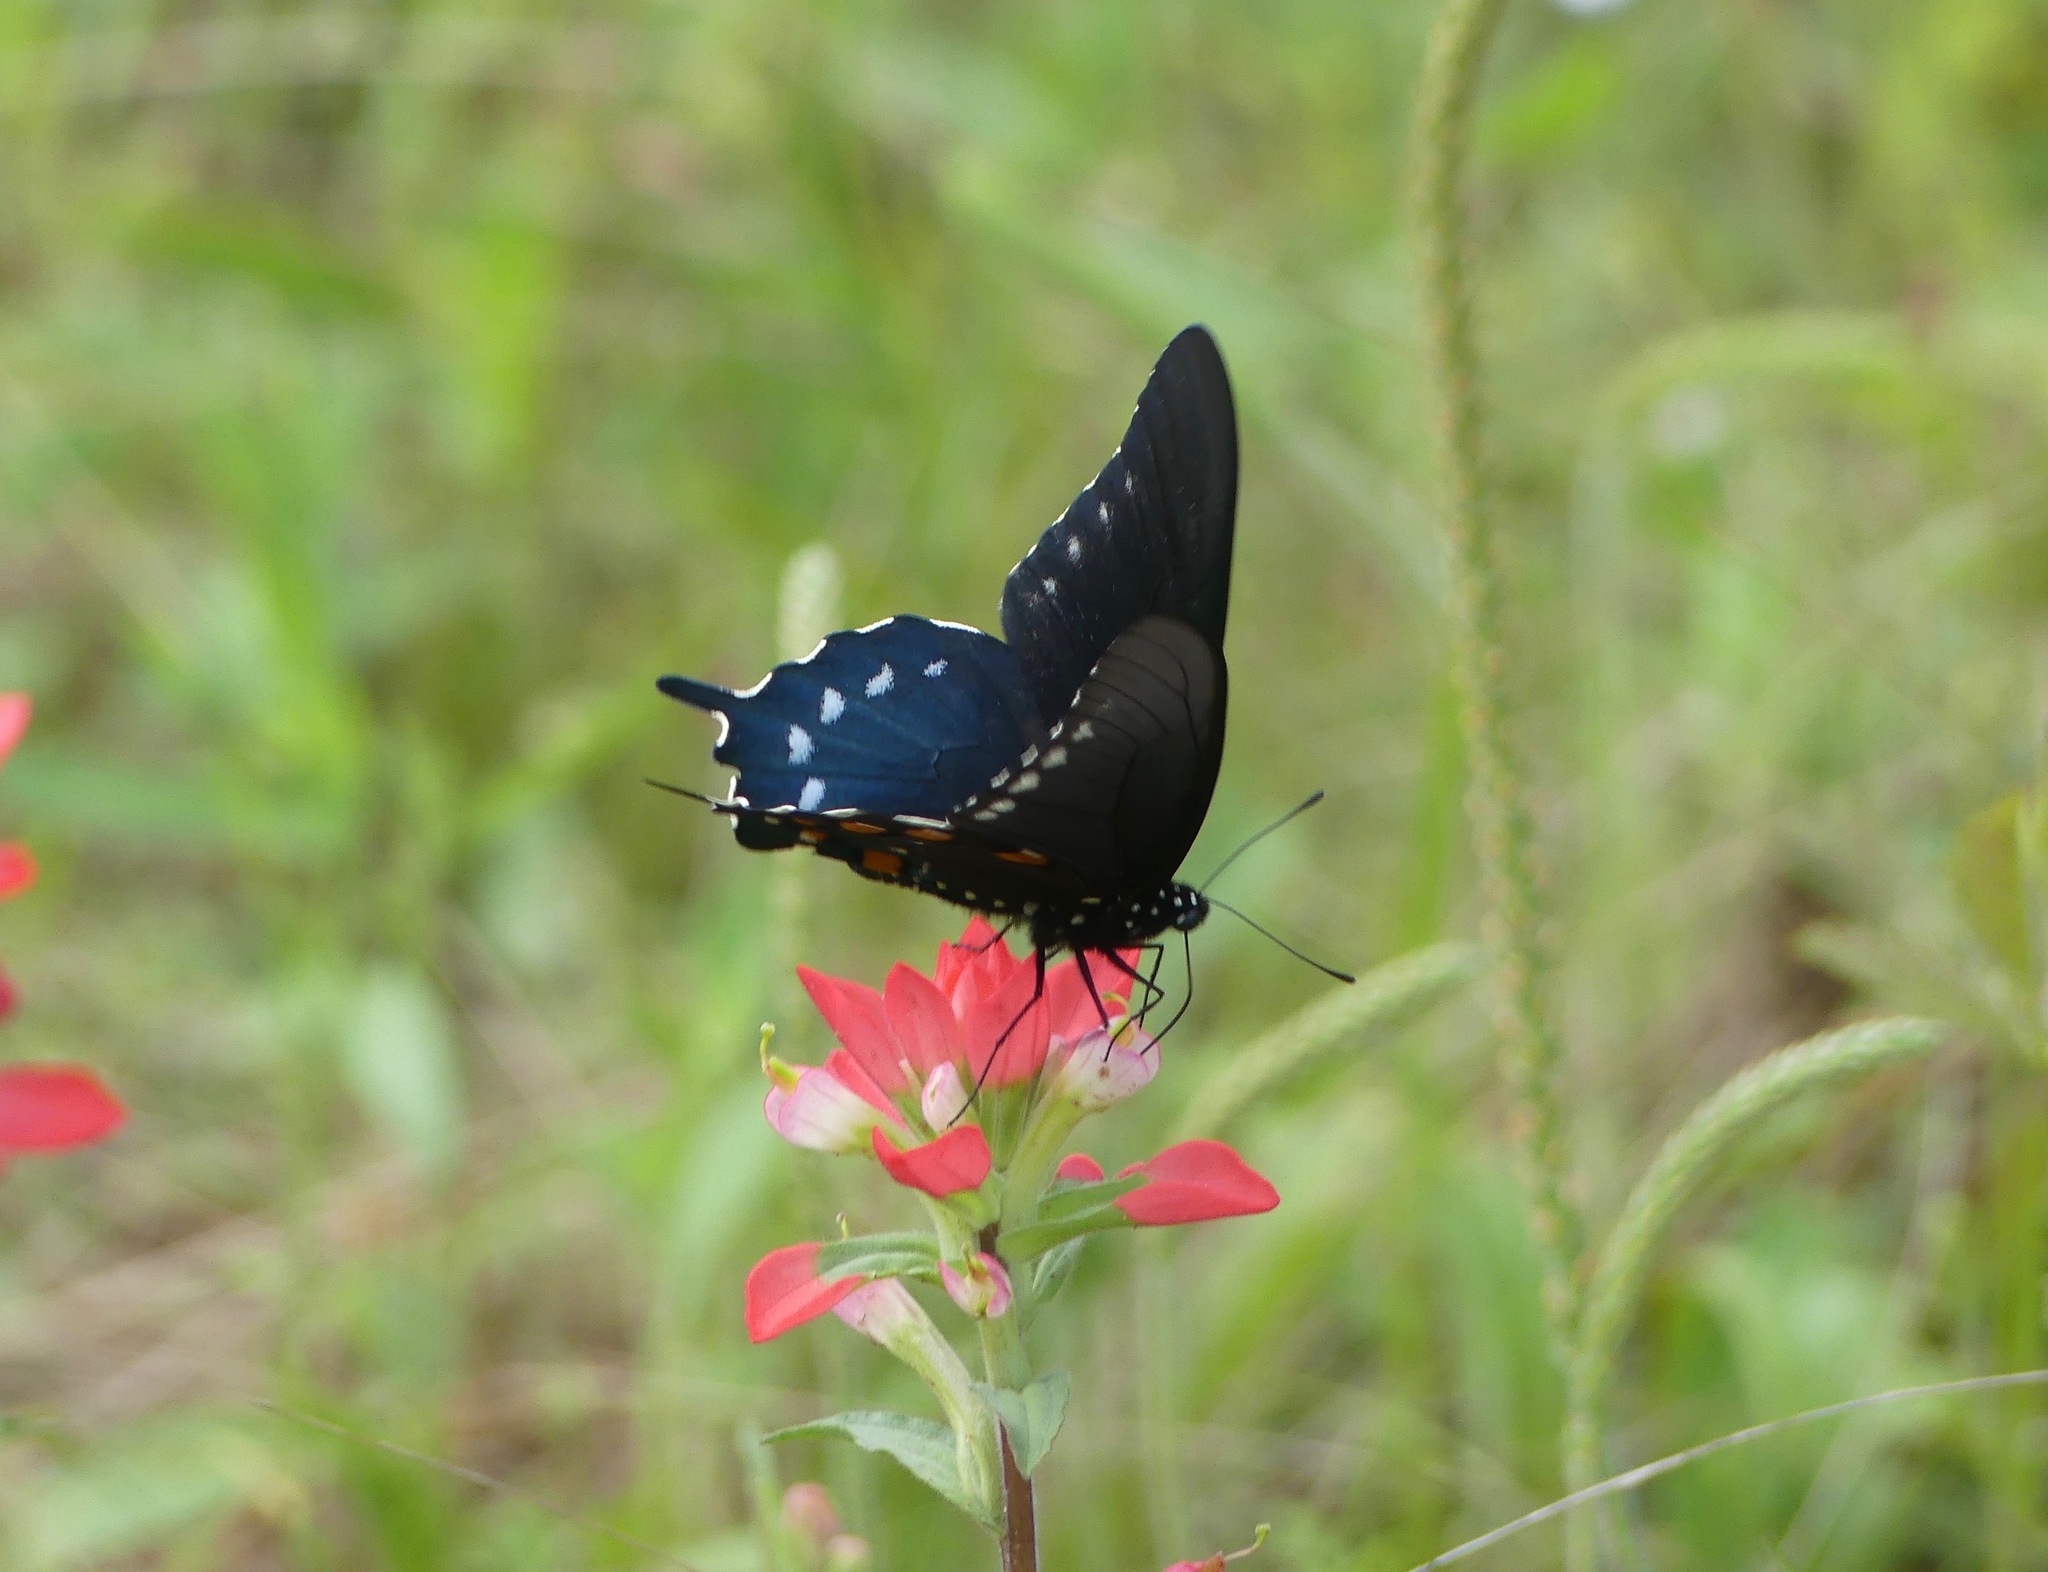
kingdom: Animalia
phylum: Arthropoda
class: Insecta
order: Lepidoptera
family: Papilionidae
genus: Battus
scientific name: Battus philenor
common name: Pipevine swallowtail
